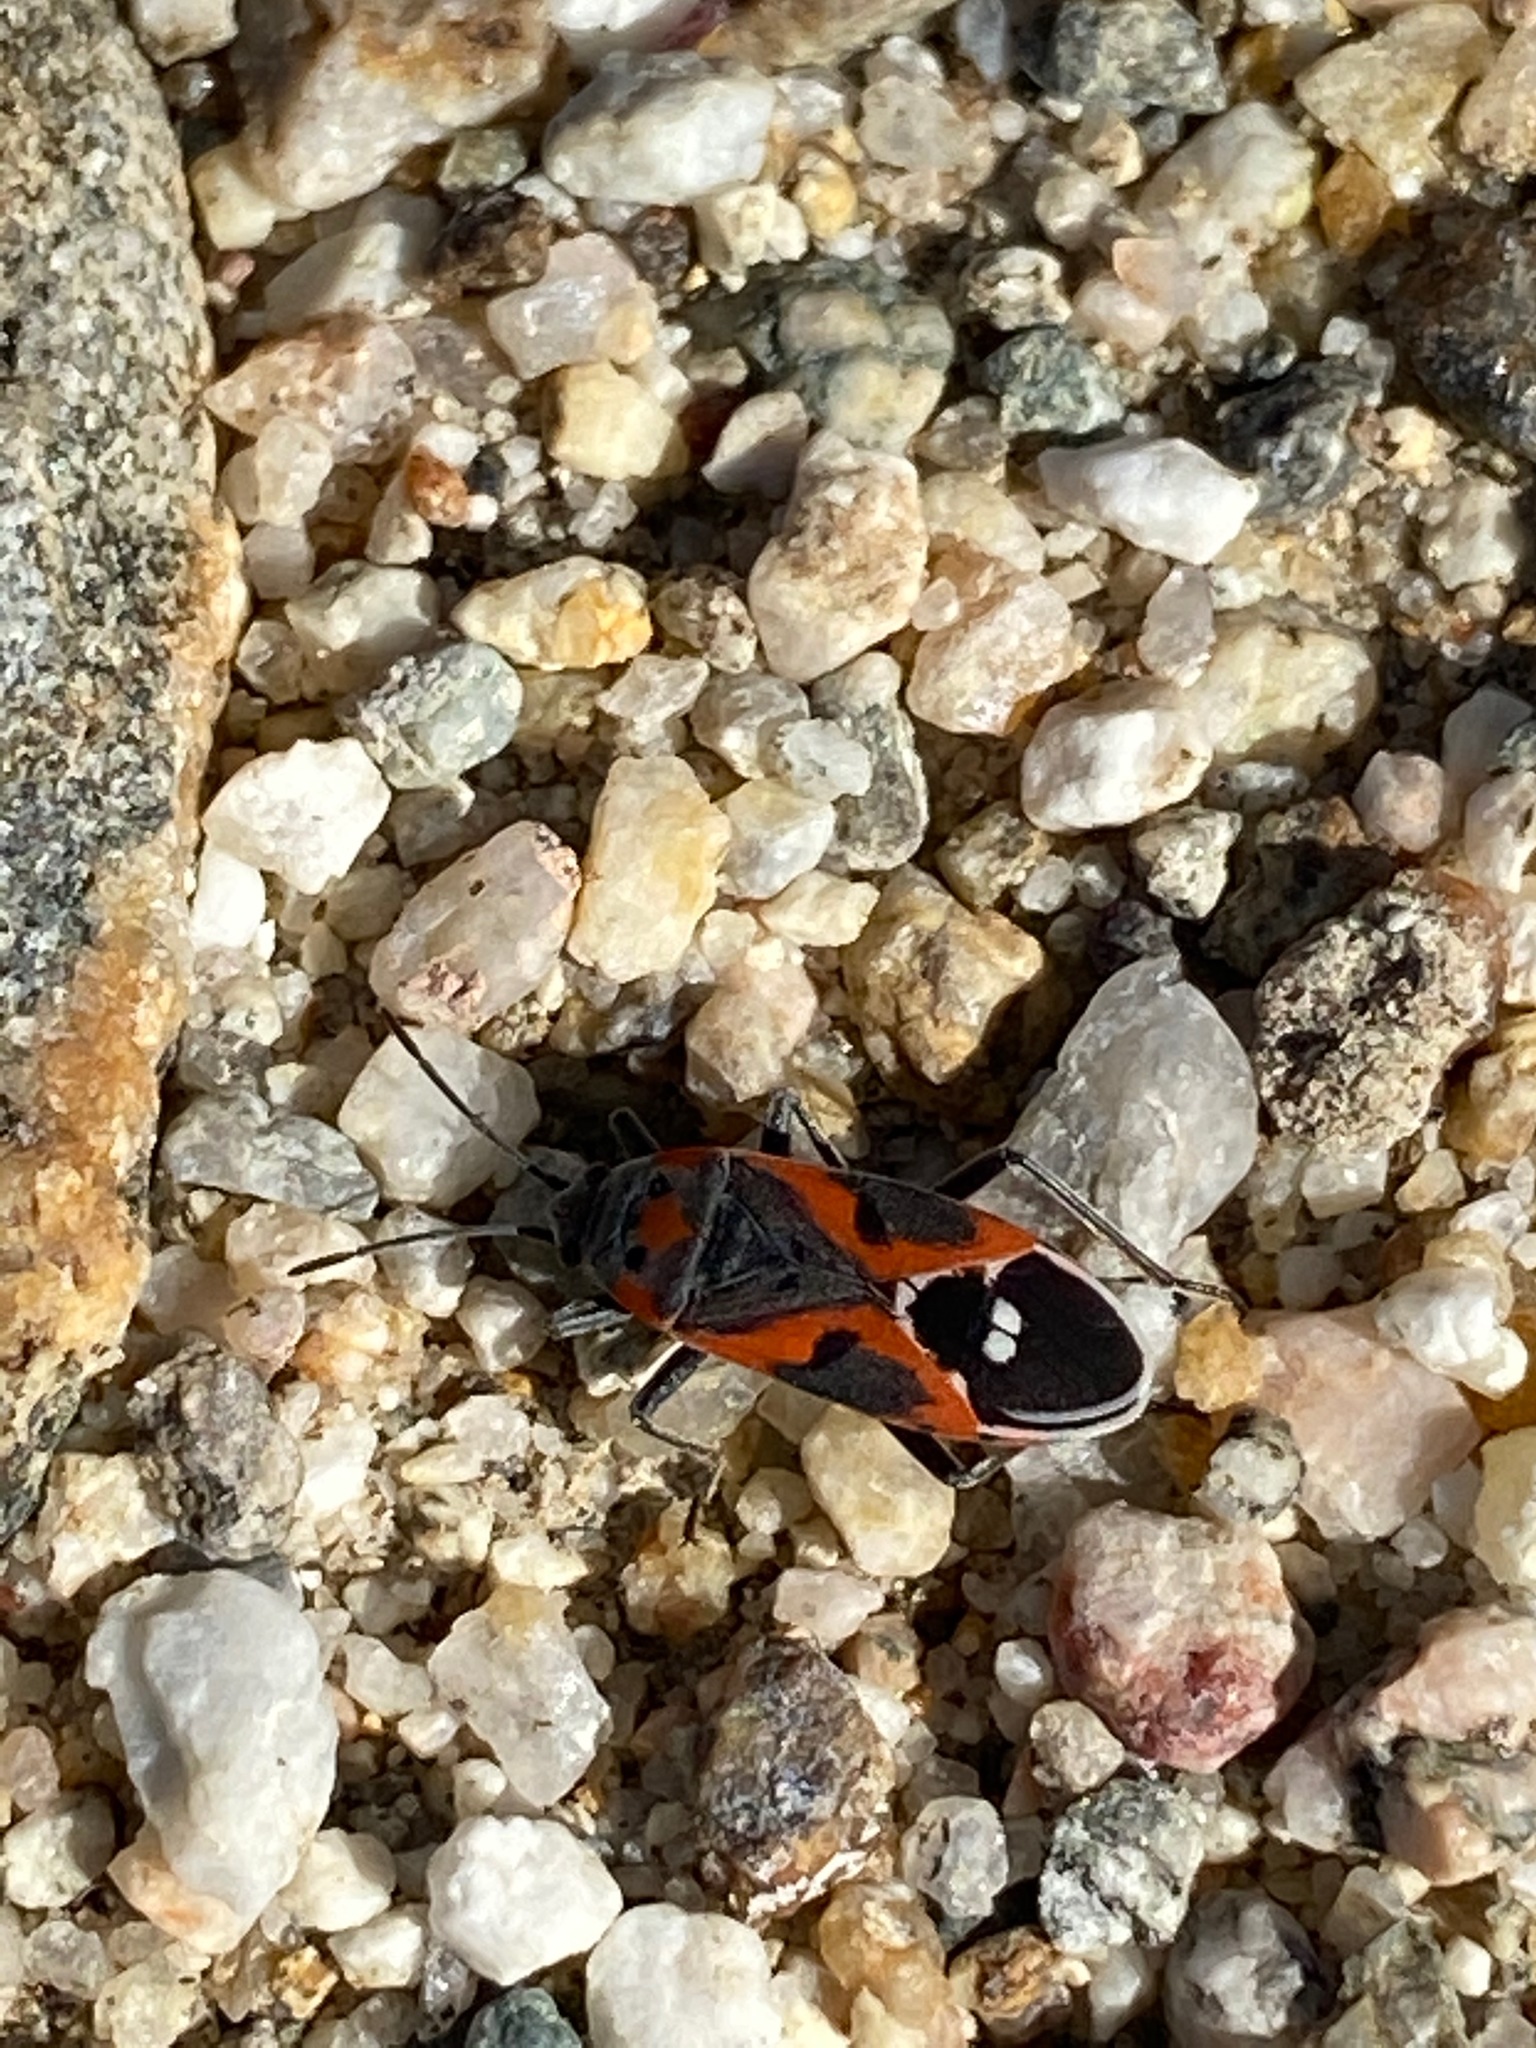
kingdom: Animalia
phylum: Arthropoda
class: Insecta
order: Hemiptera
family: Lygaeidae
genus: Lygaeus
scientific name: Lygaeus kalmii
